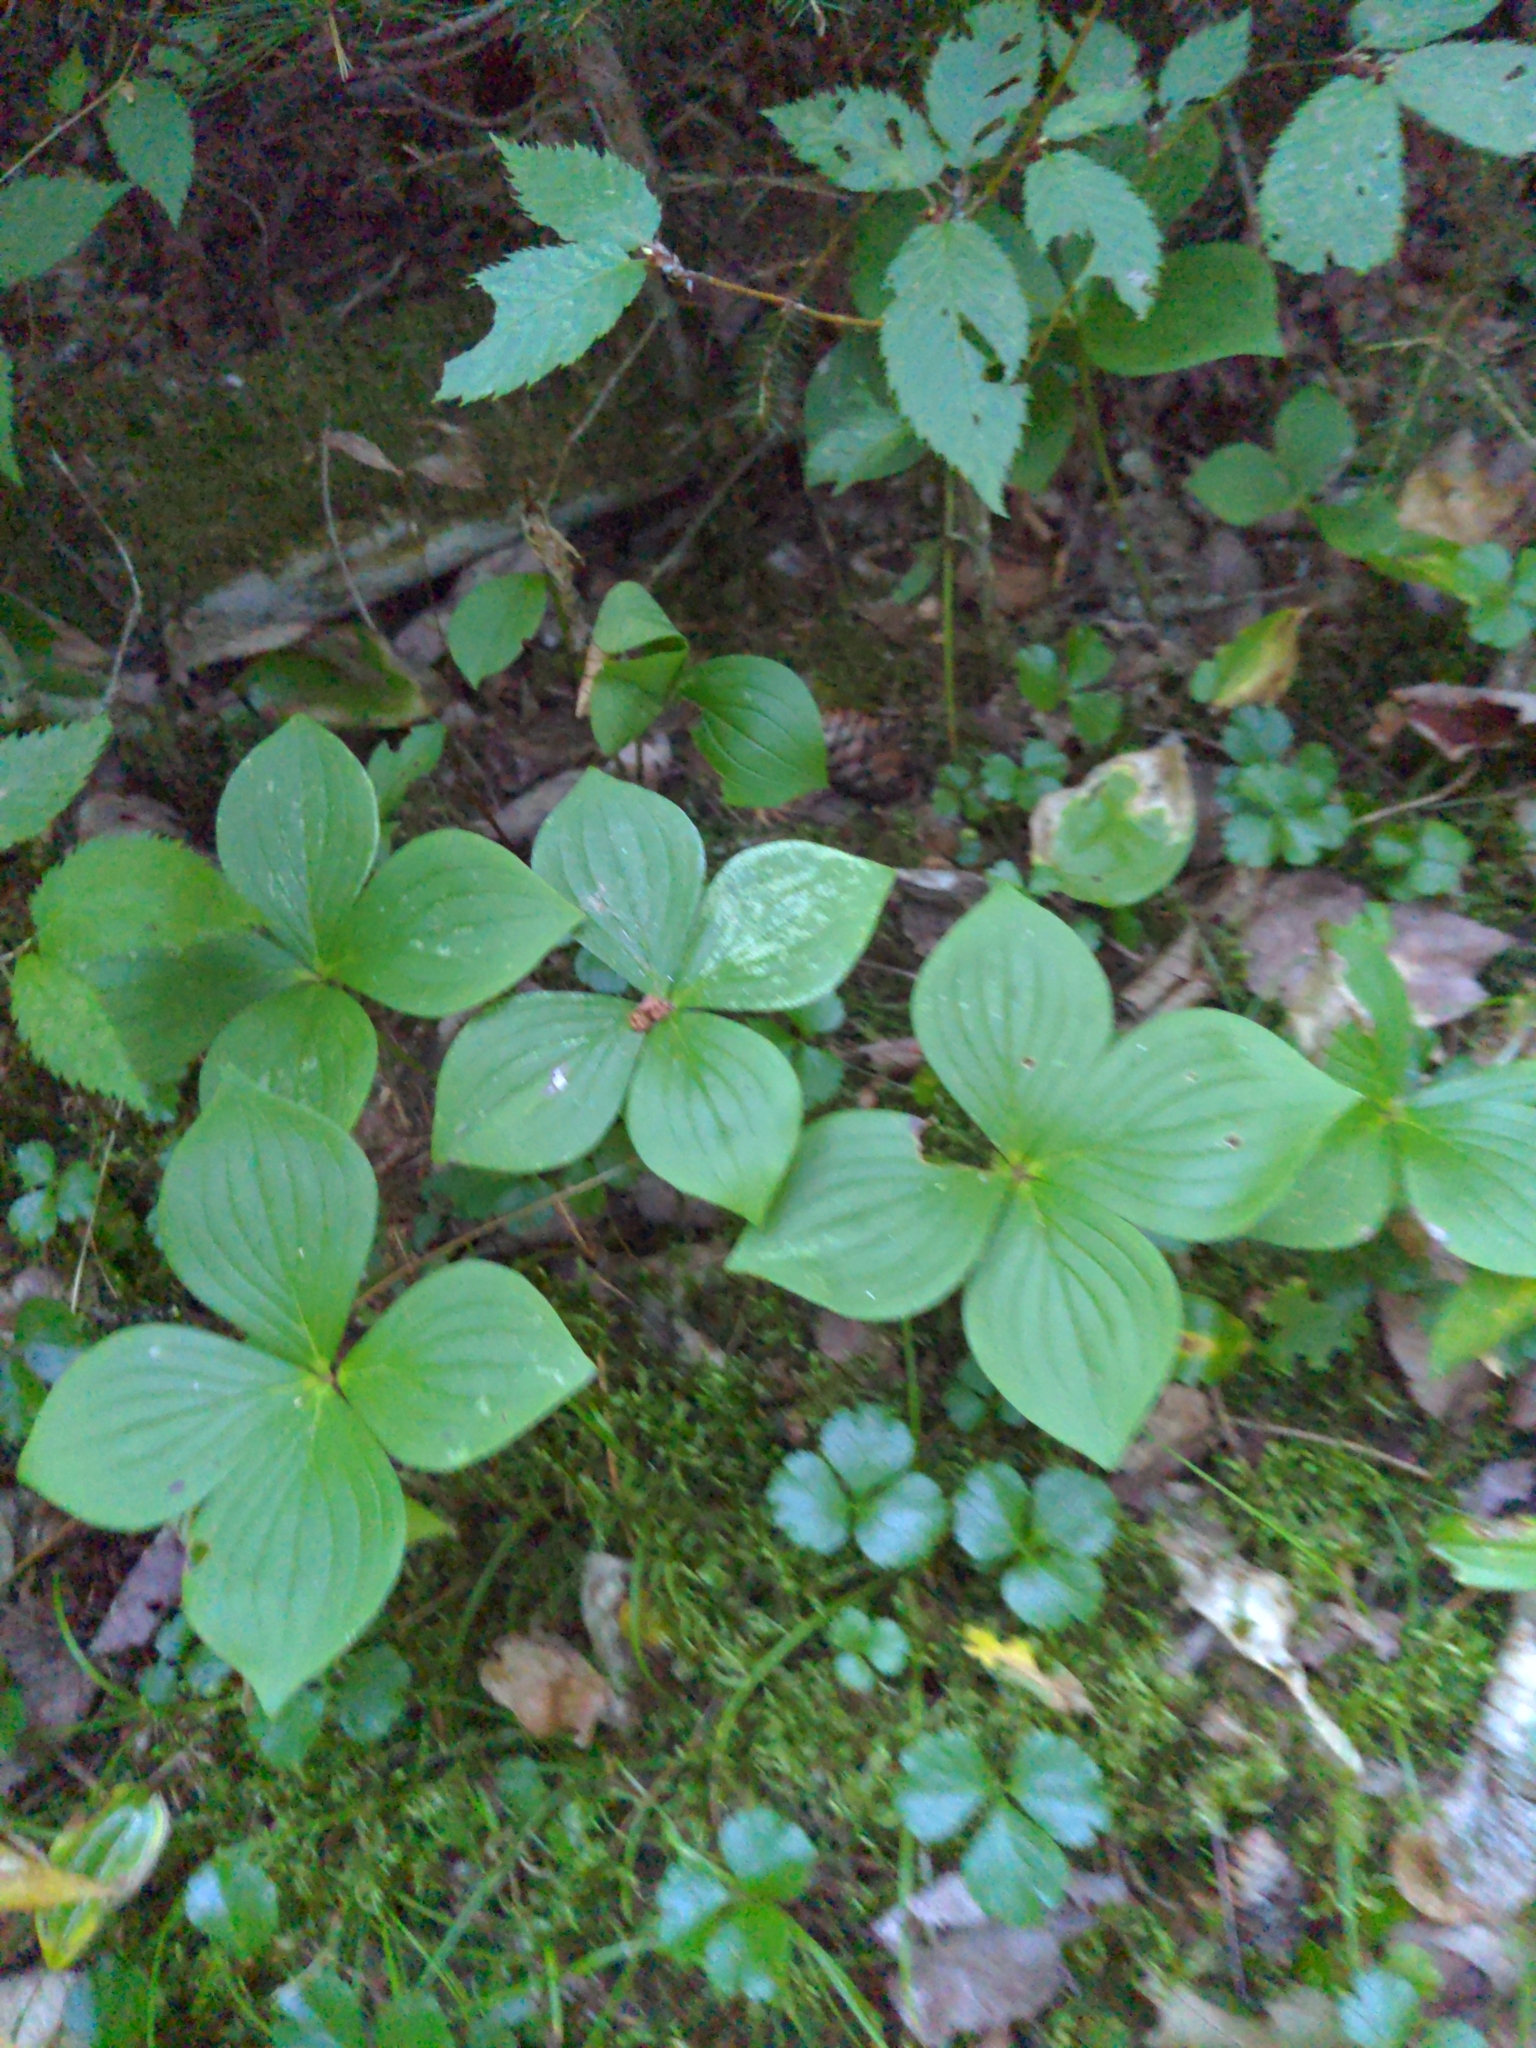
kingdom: Plantae
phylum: Tracheophyta
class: Magnoliopsida
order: Cornales
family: Cornaceae
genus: Cornus
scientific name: Cornus canadensis
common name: Creeping dogwood
